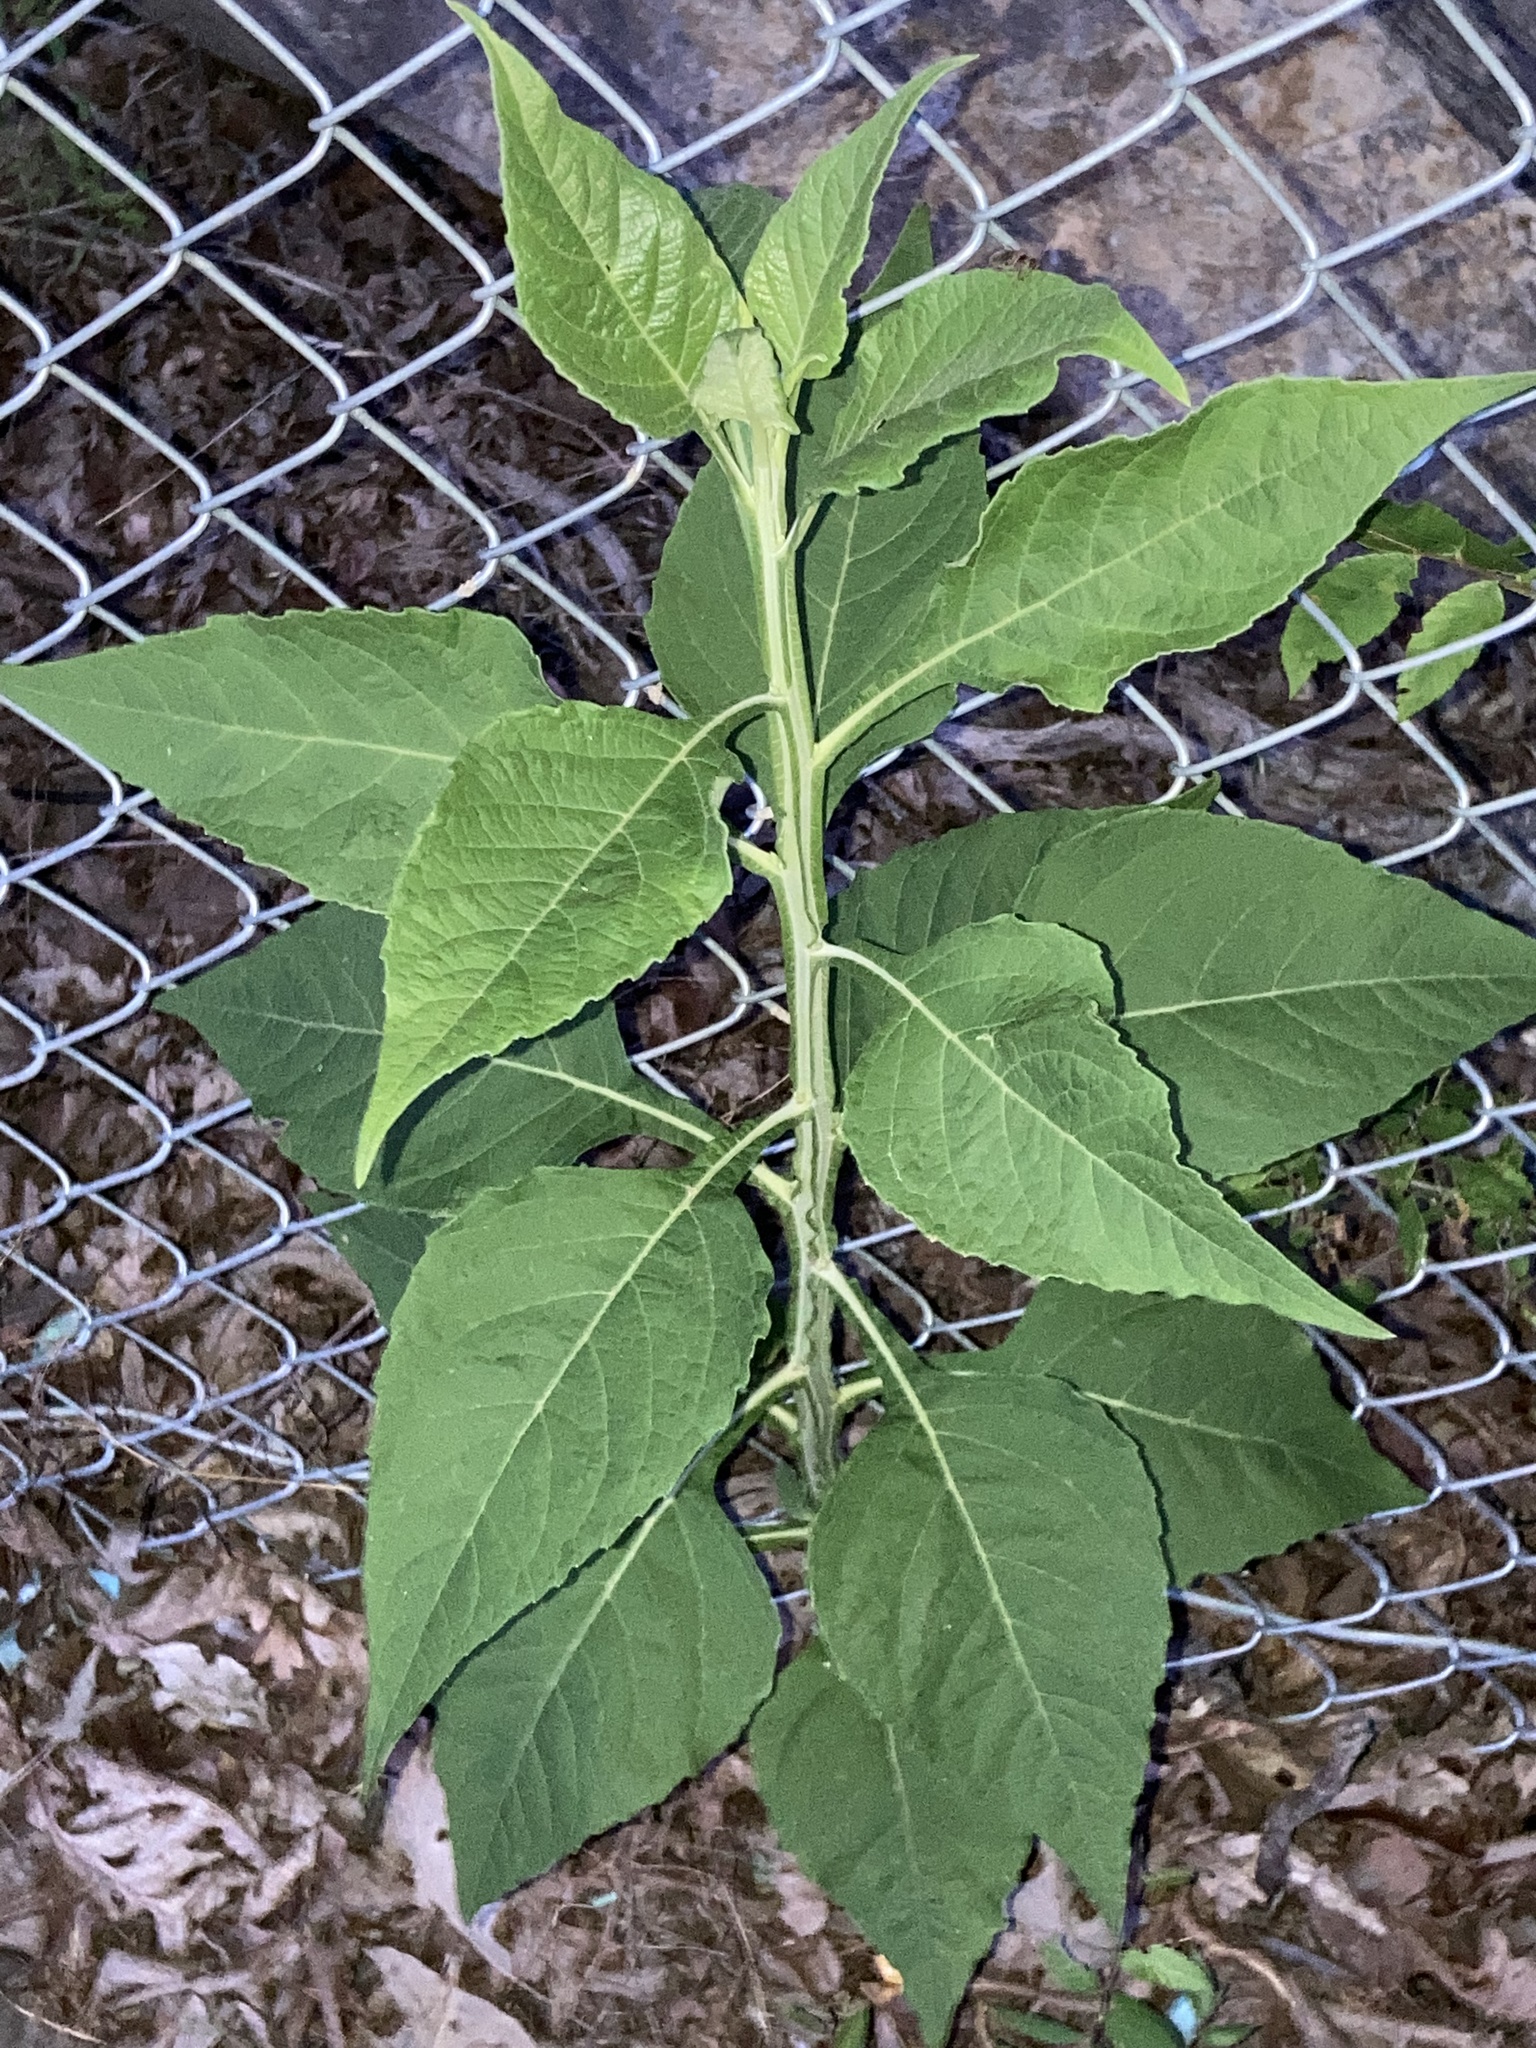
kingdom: Plantae
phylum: Tracheophyta
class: Magnoliopsida
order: Asterales
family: Asteraceae
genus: Verbesina
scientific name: Verbesina virginica
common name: Frostweed
